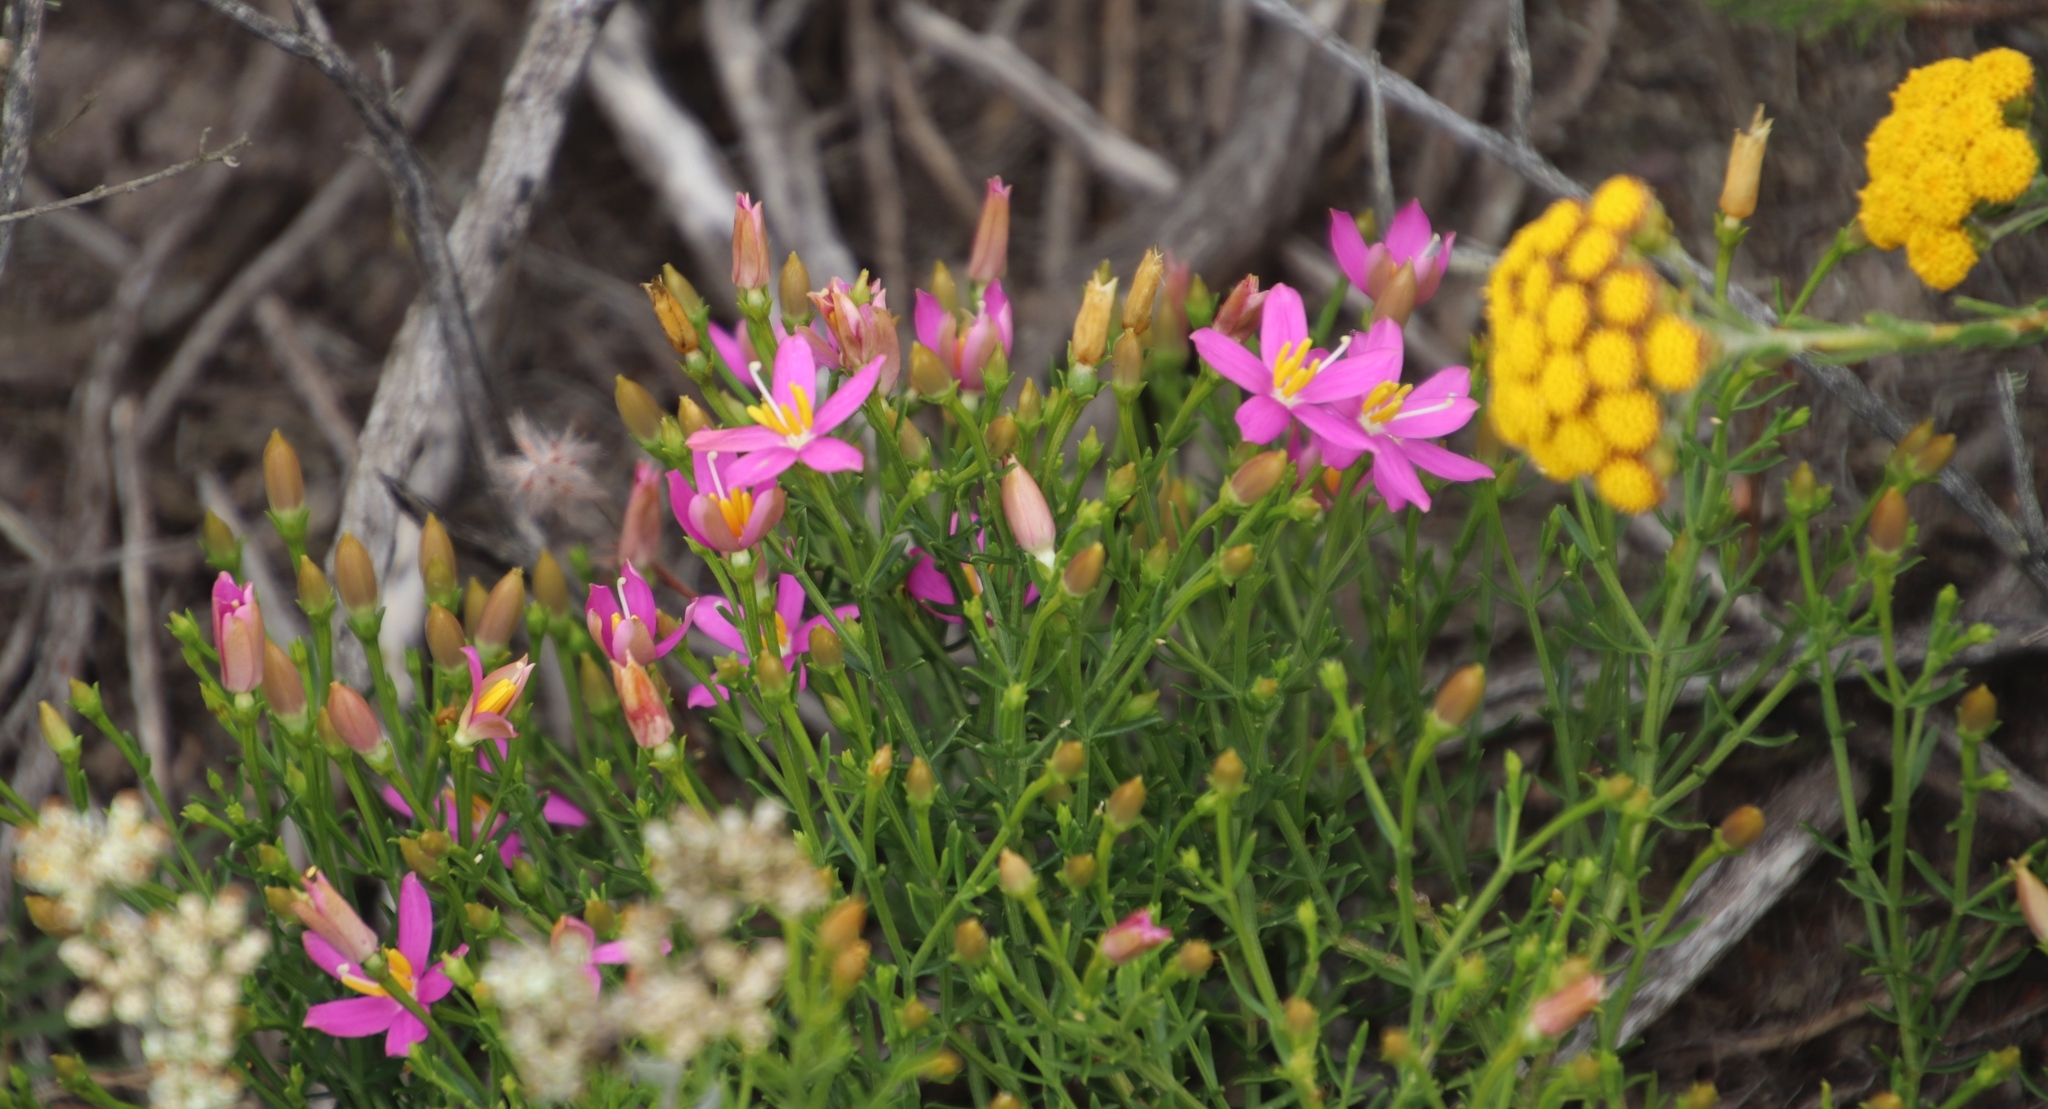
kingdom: Plantae
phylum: Tracheophyta
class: Magnoliopsida
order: Gentianales
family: Gentianaceae
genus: Chironia
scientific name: Chironia baccifera
